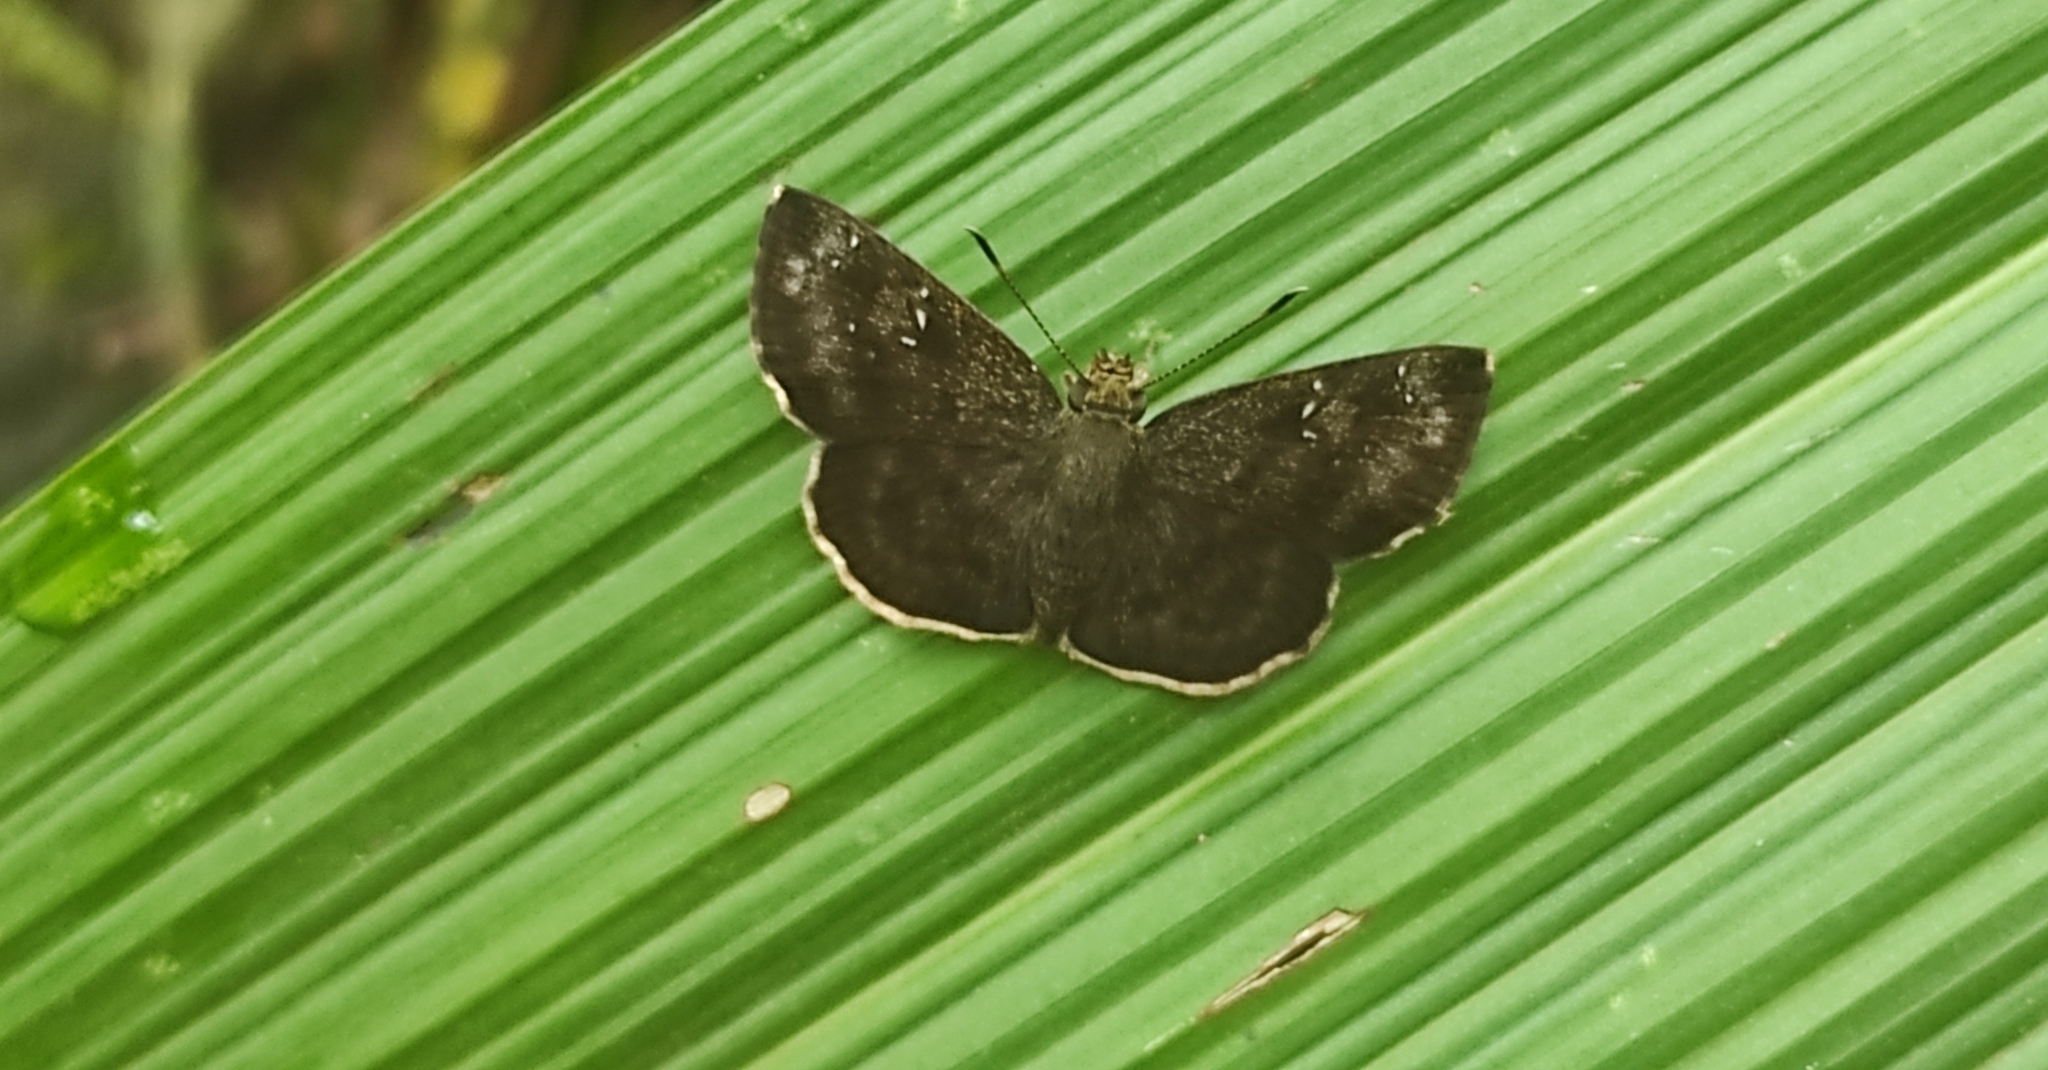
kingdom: Animalia
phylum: Arthropoda
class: Insecta
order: Lepidoptera
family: Hesperiidae
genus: Sarangesa
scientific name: Sarangesa dasahara
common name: Common small flat
